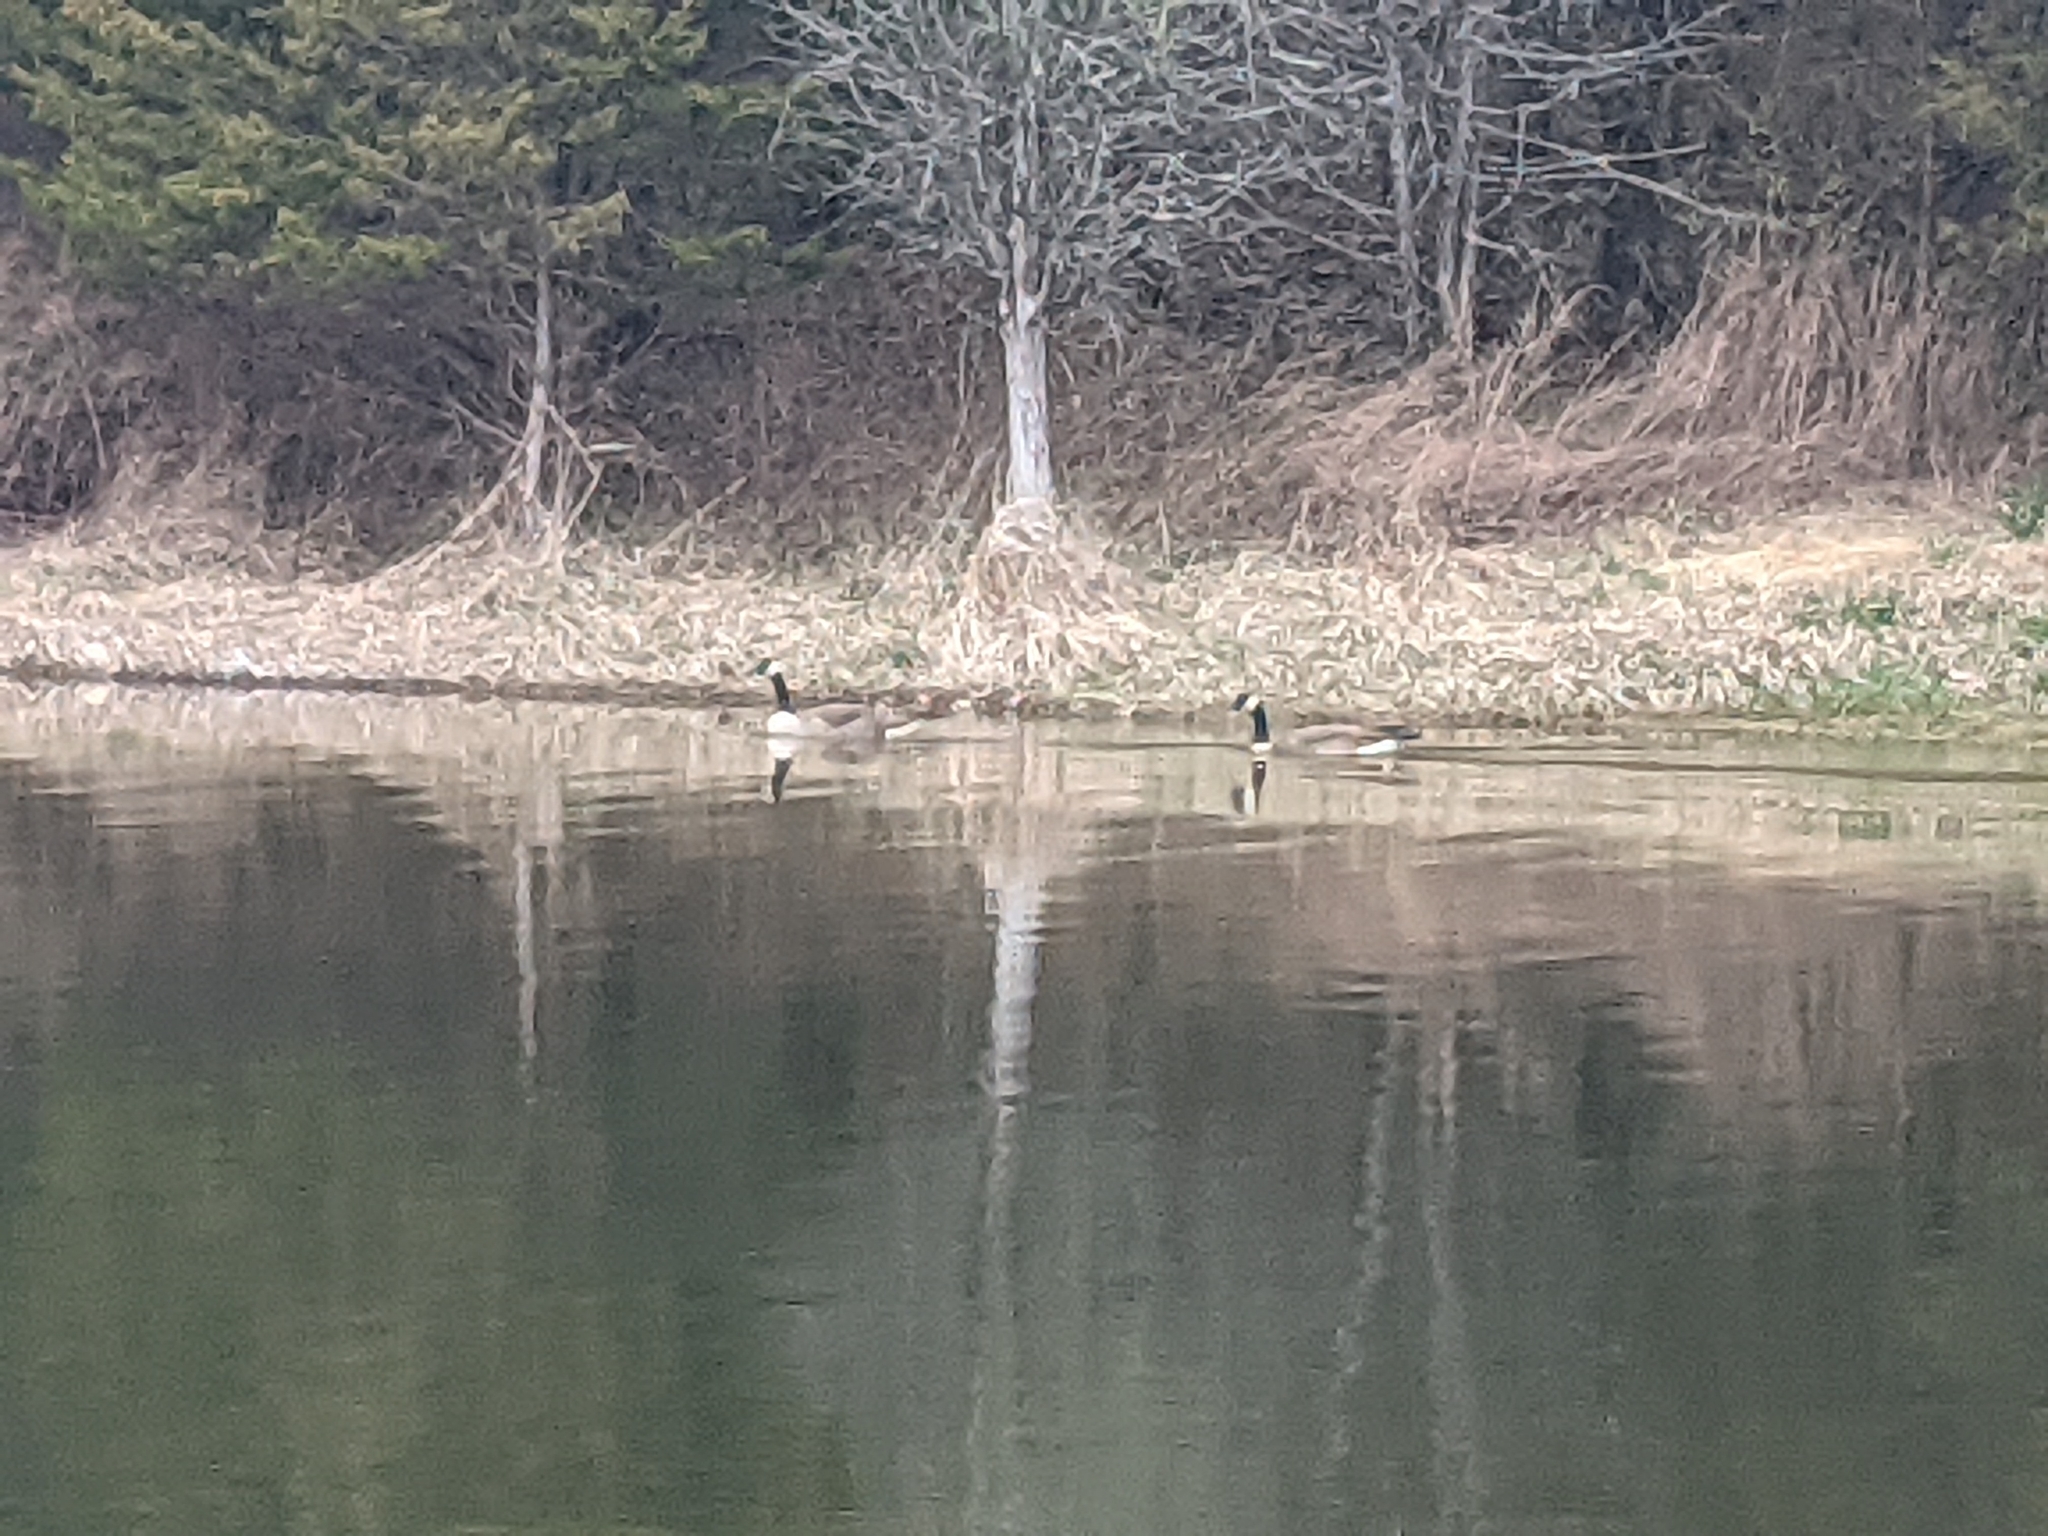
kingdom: Animalia
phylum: Chordata
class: Aves
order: Anseriformes
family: Anatidae
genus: Branta
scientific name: Branta canadensis
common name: Canada goose
